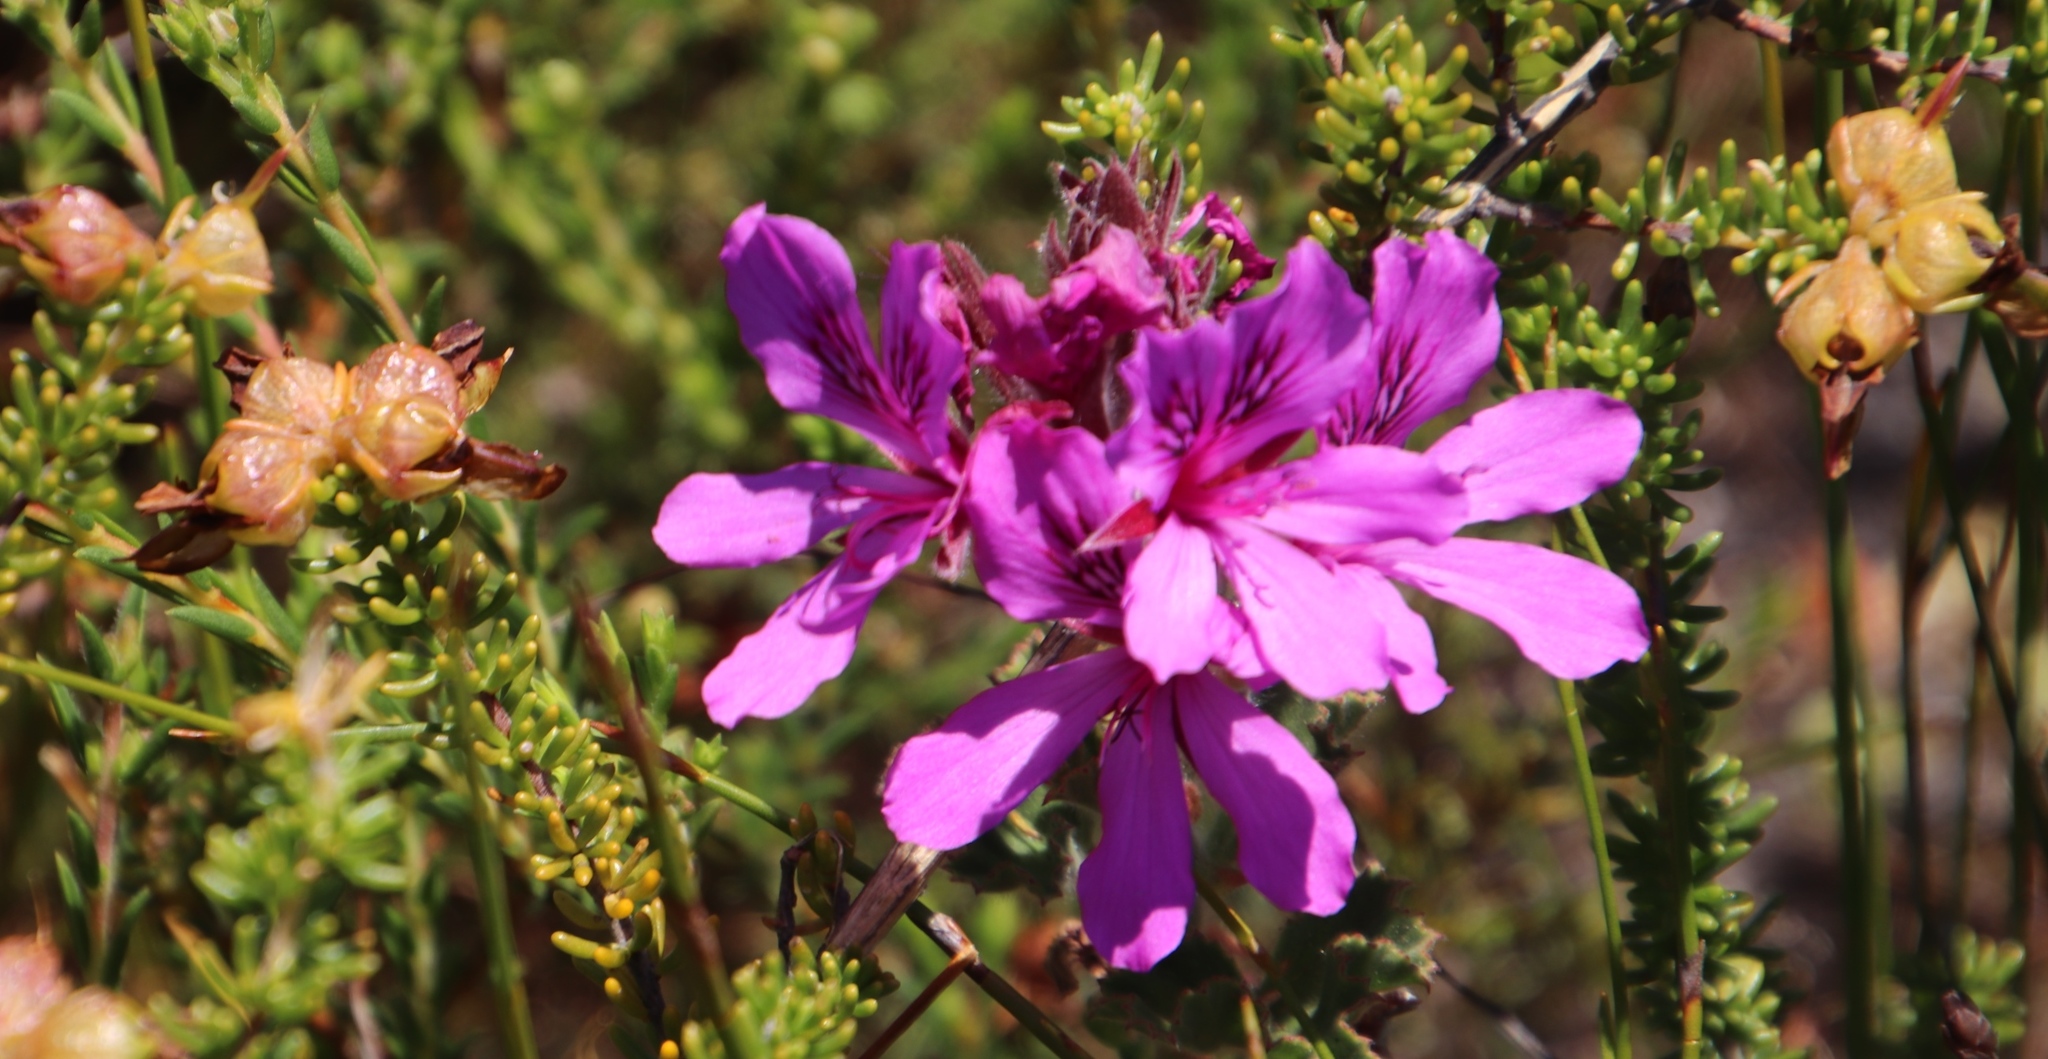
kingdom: Plantae
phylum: Tracheophyta
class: Magnoliopsida
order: Geraniales
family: Geraniaceae
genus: Pelargonium
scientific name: Pelargonium cucullatum
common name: Tree pelargonium
